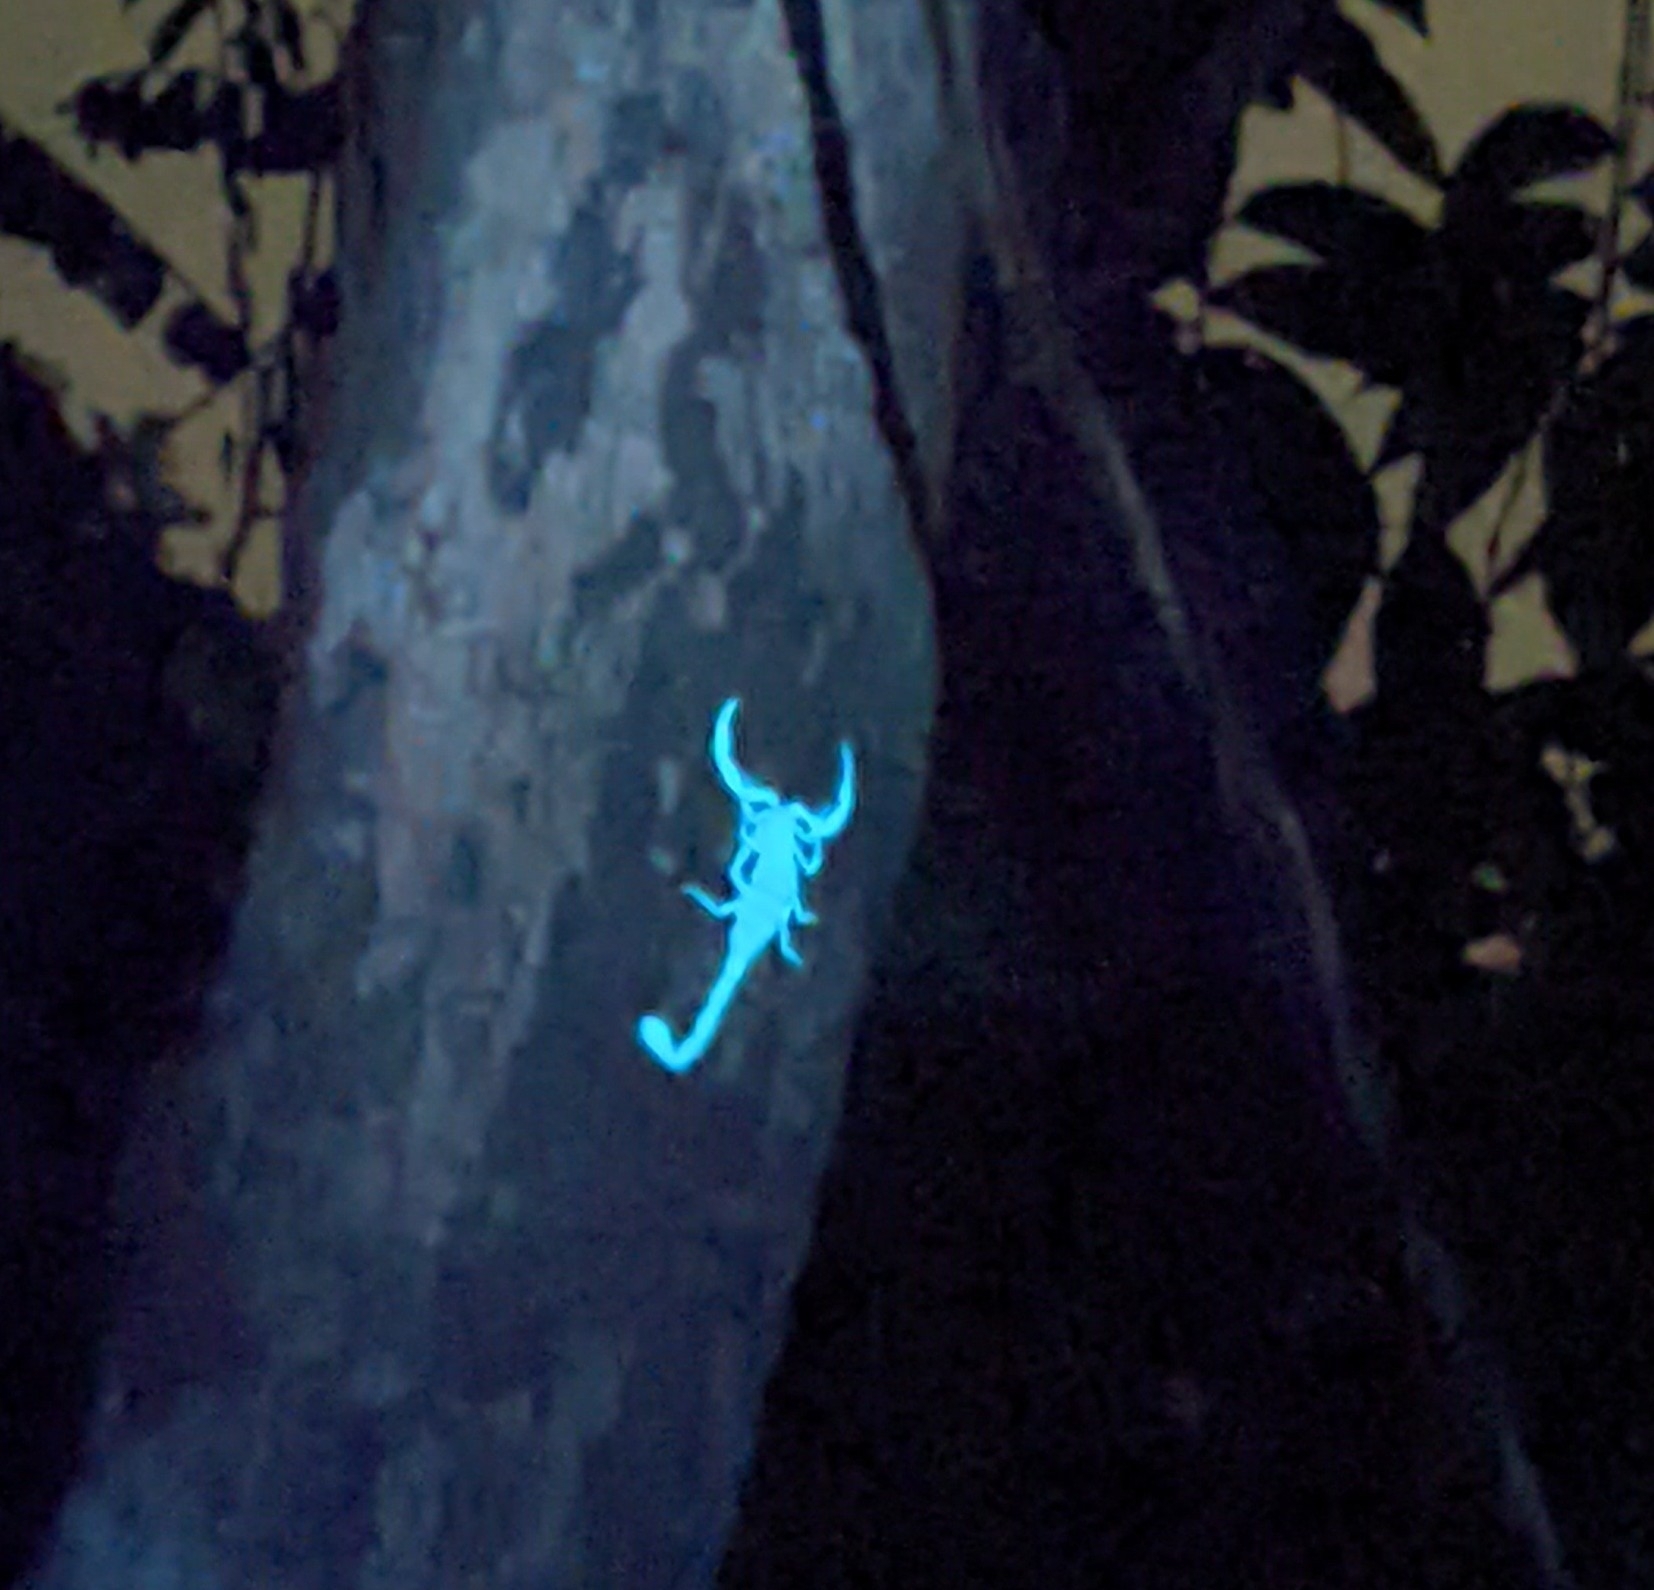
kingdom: Animalia
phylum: Arthropoda
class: Arachnida
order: Scorpiones
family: Buthidae
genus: Lychas
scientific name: Lychas scutilus
